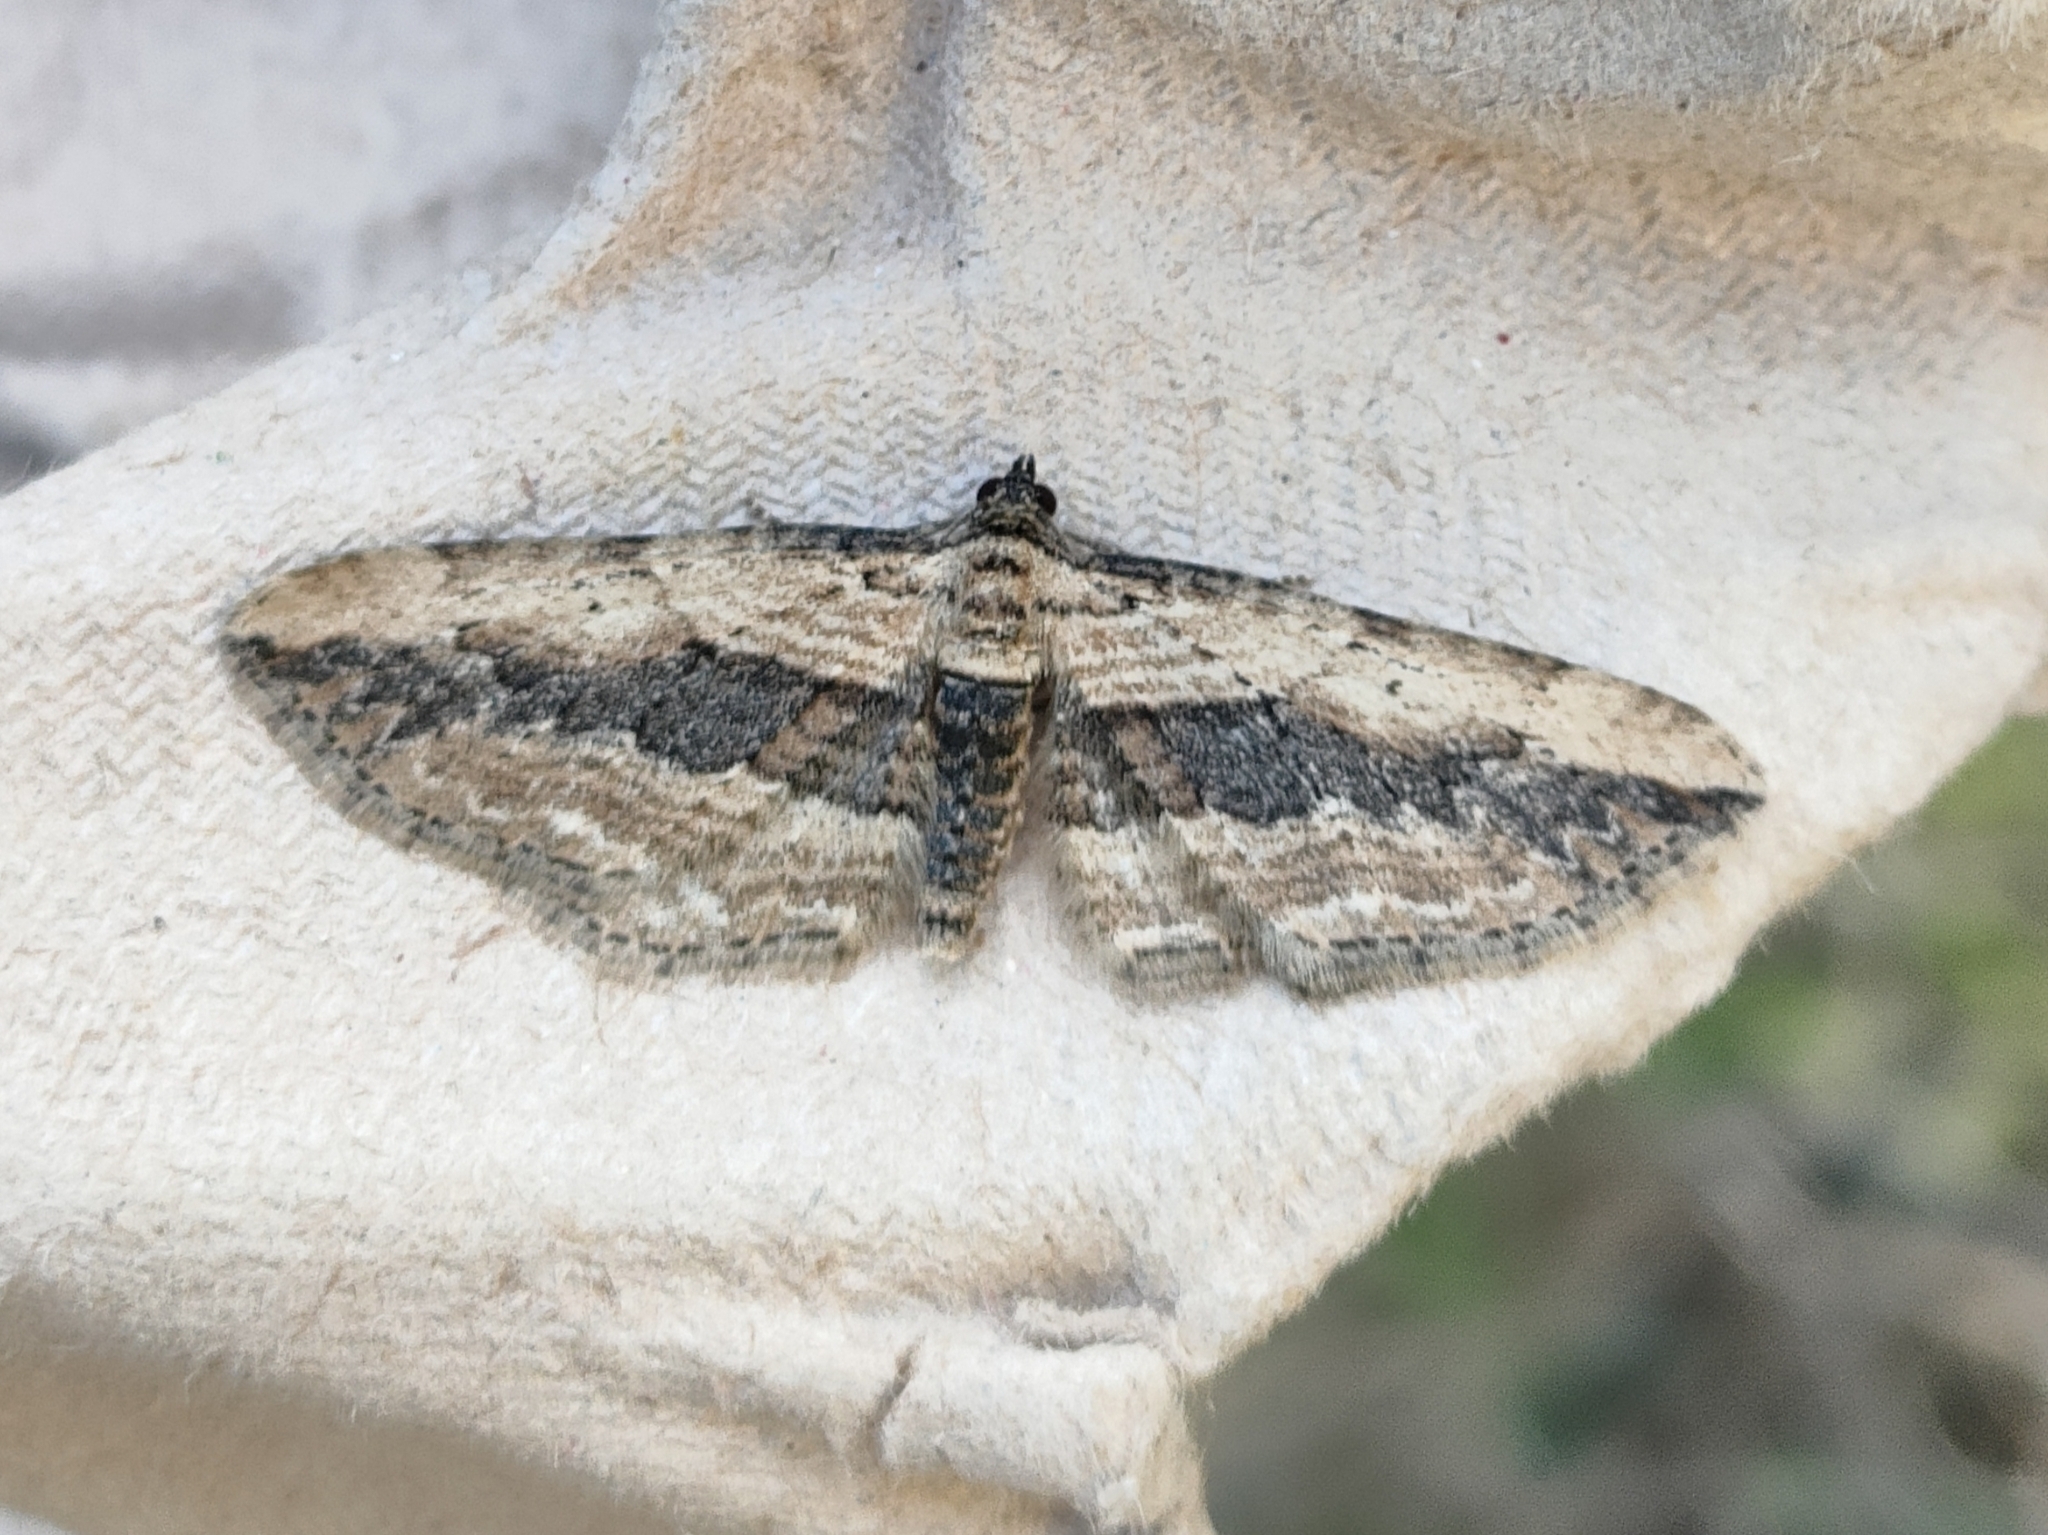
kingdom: Animalia
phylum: Arthropoda
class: Insecta
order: Lepidoptera
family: Geometridae
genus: Horisme
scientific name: Horisme vitalbata
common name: Small waved umber
